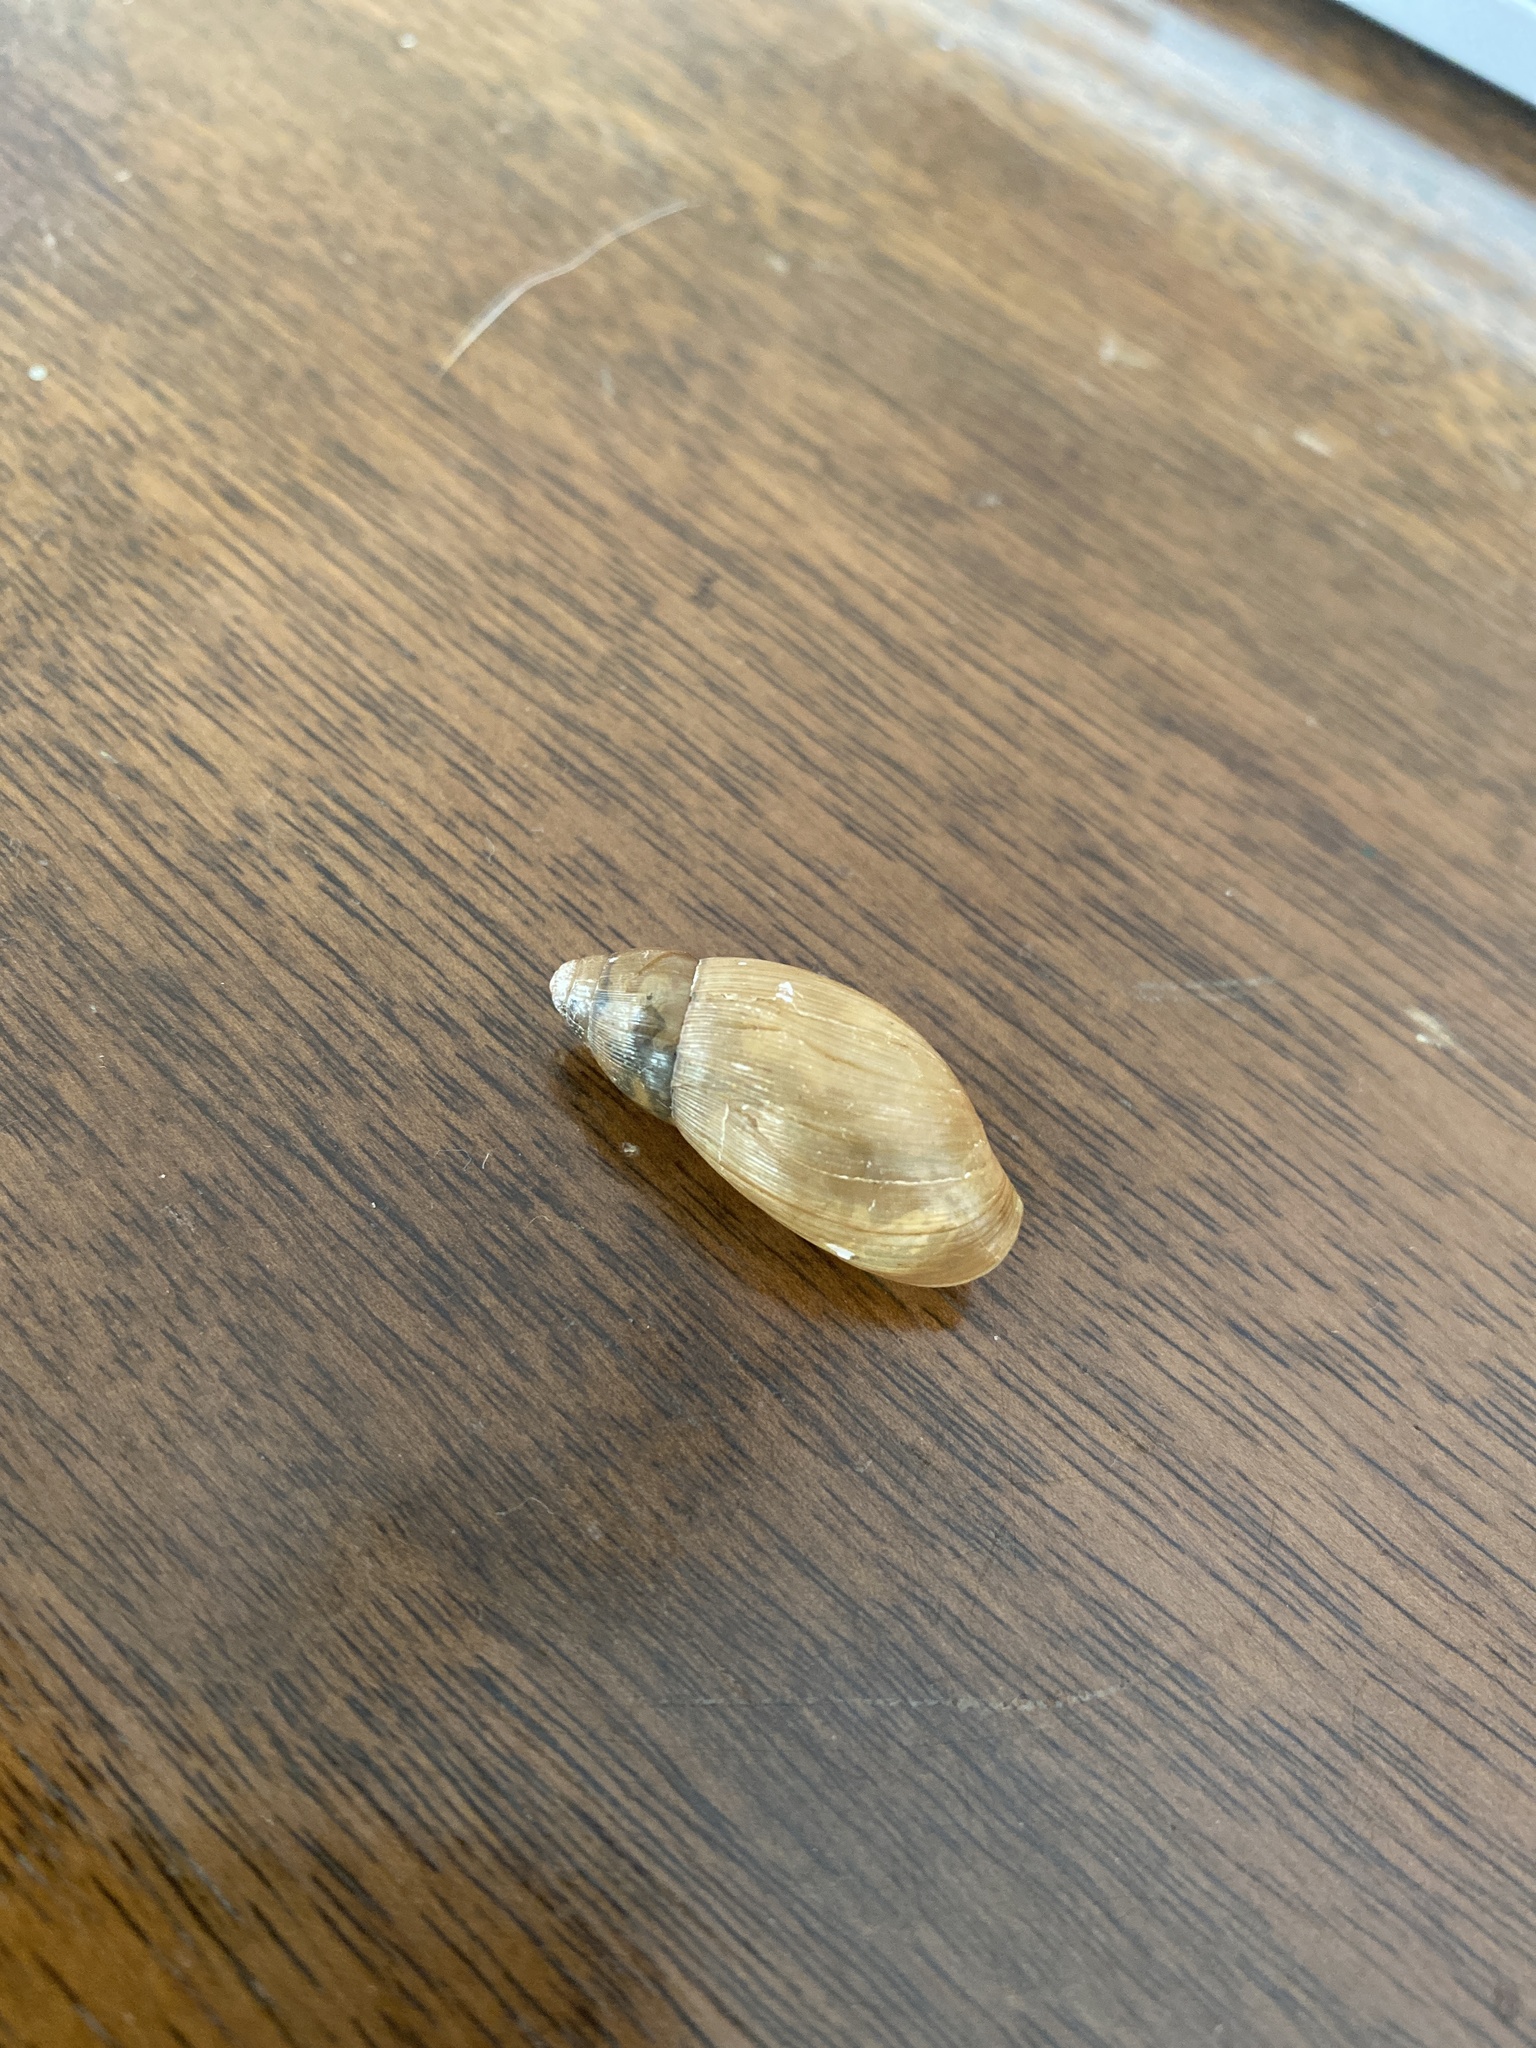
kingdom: Animalia
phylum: Mollusca
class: Gastropoda
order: Stylommatophora
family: Spiraxidae
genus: Euglandina
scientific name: Euglandina rosea
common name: Rosy wolfsnail
